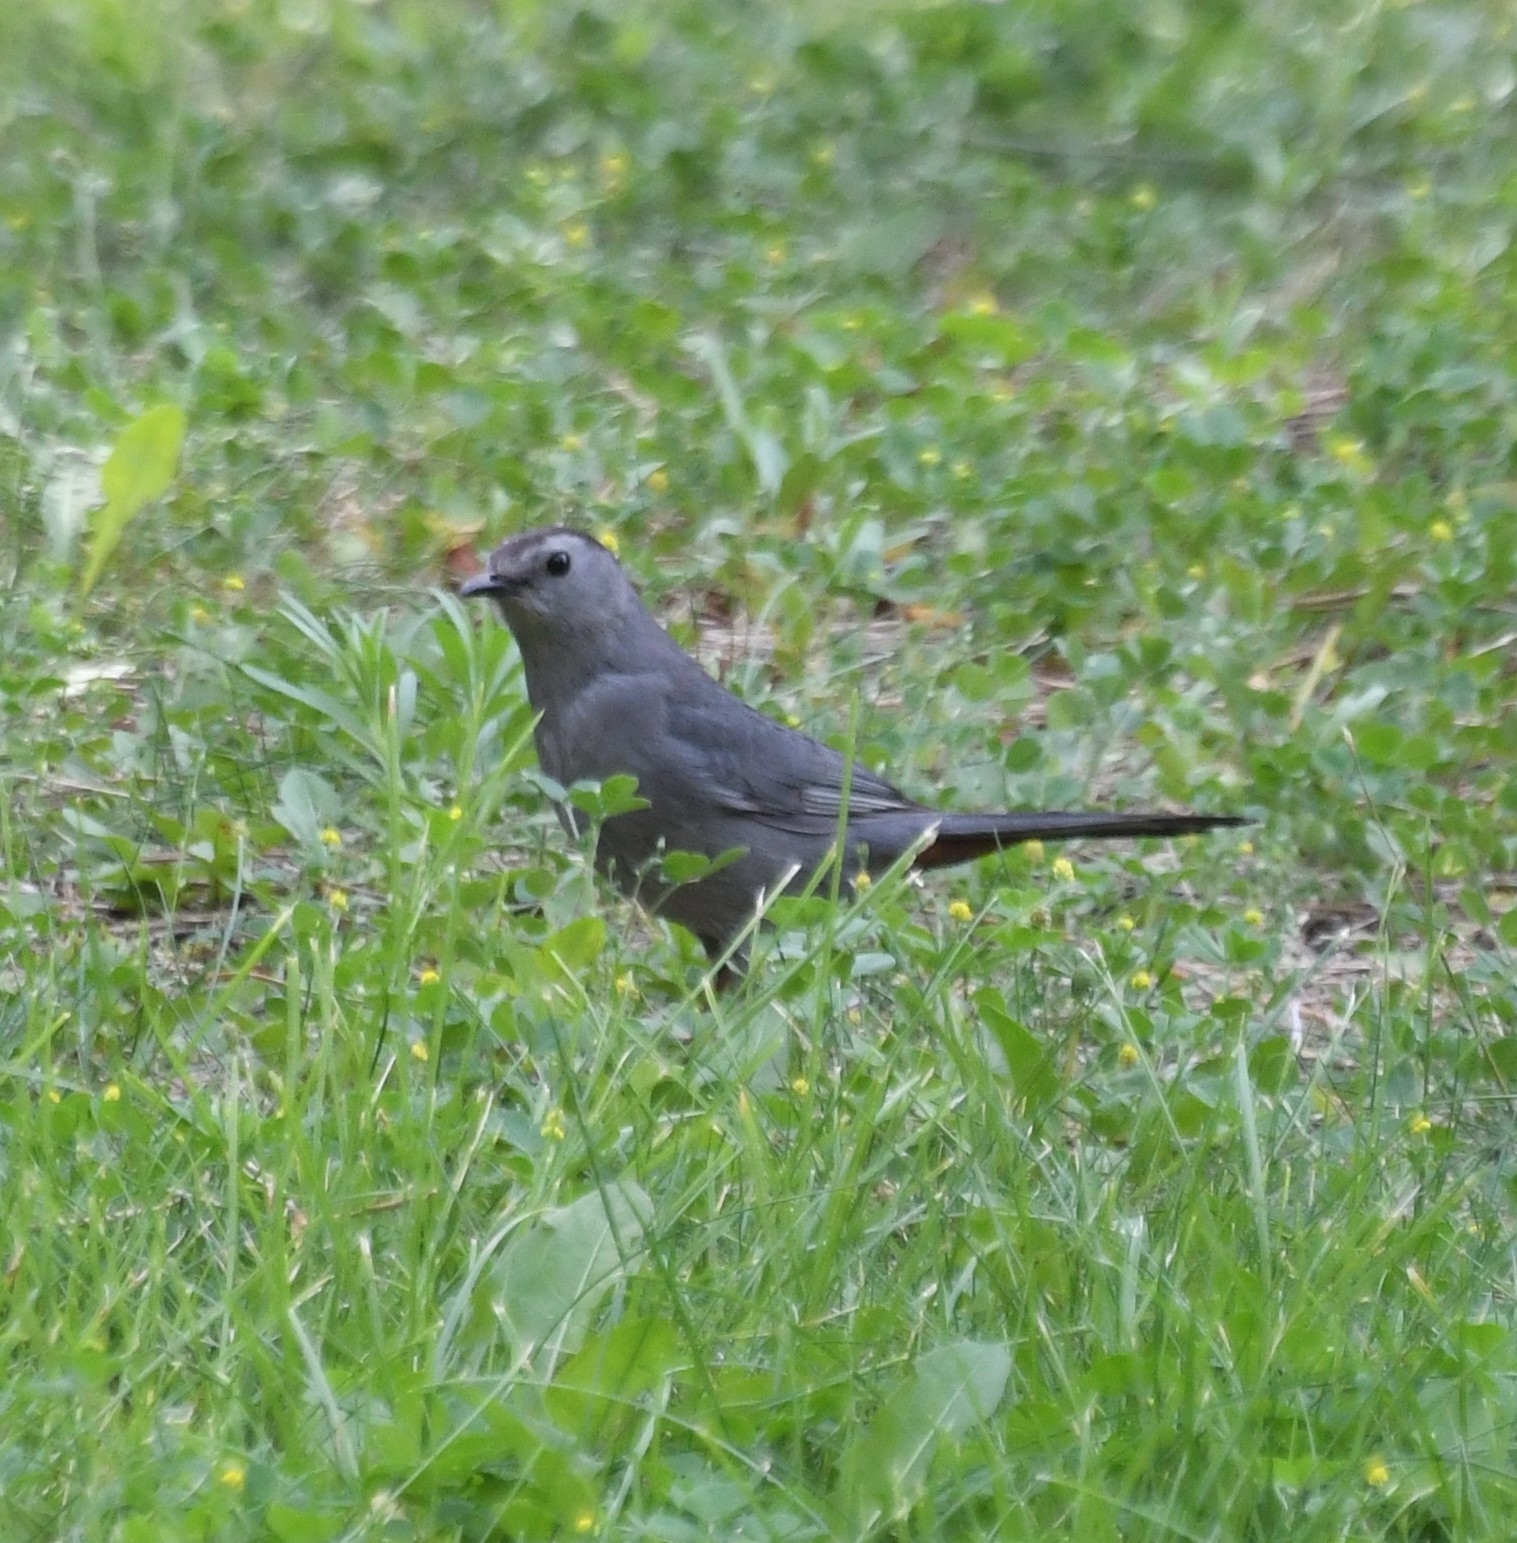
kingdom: Animalia
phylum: Chordata
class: Aves
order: Passeriformes
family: Mimidae
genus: Dumetella
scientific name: Dumetella carolinensis
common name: Gray catbird
